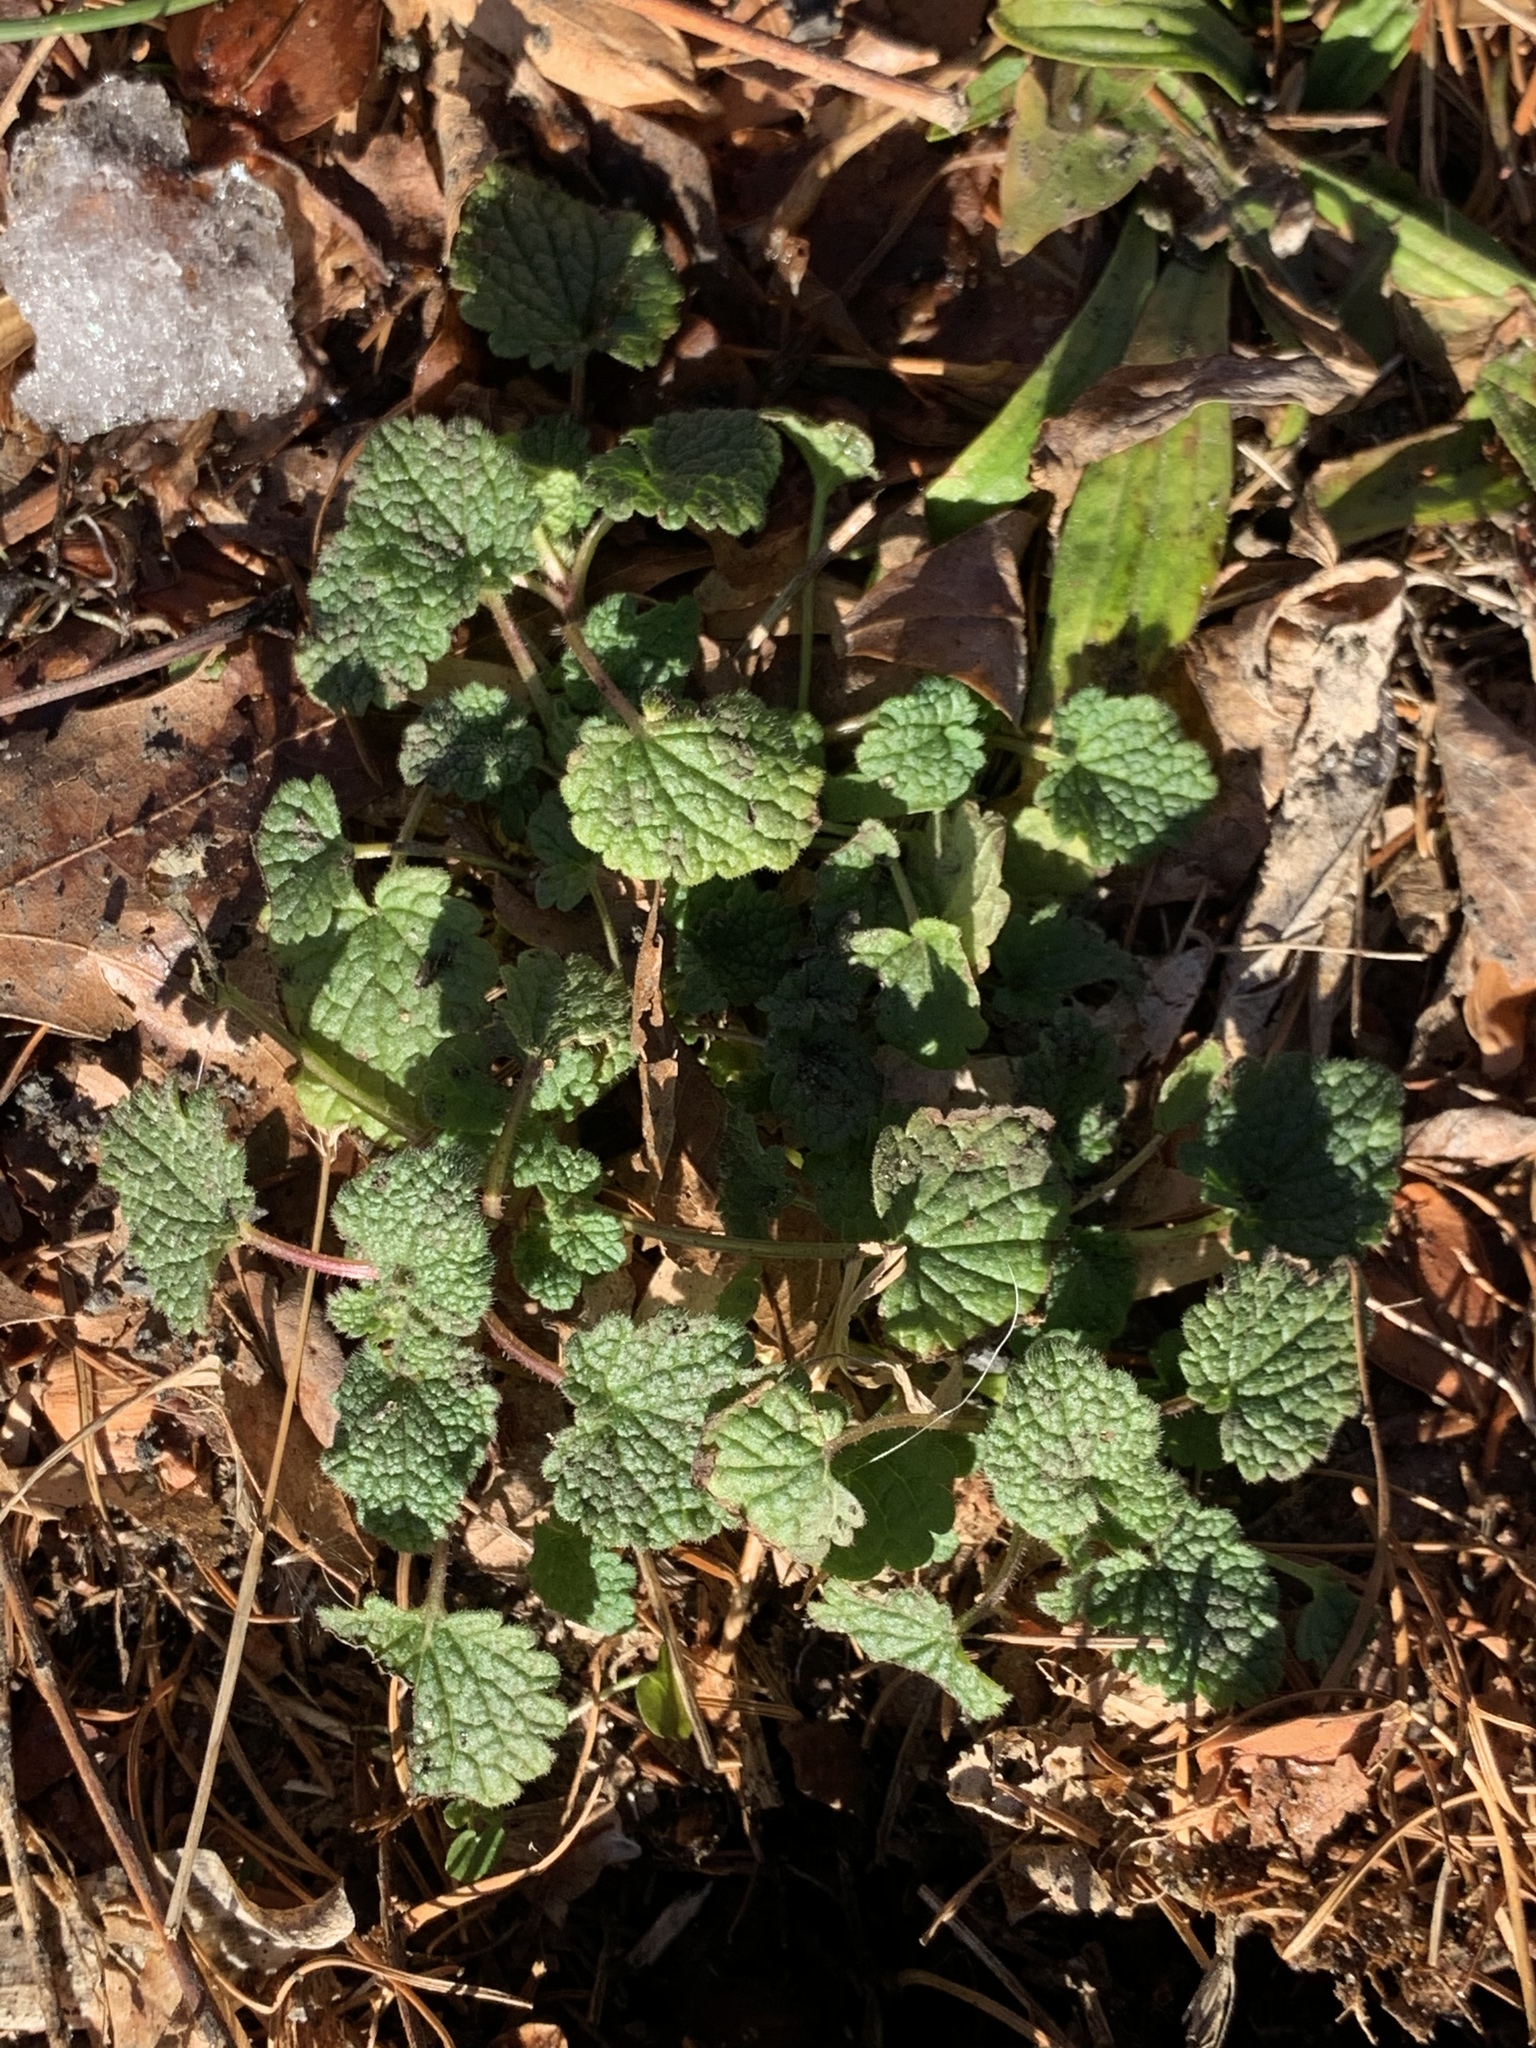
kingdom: Plantae
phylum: Tracheophyta
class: Magnoliopsida
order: Lamiales
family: Lamiaceae
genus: Lamium
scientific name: Lamium purpureum
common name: Red dead-nettle
